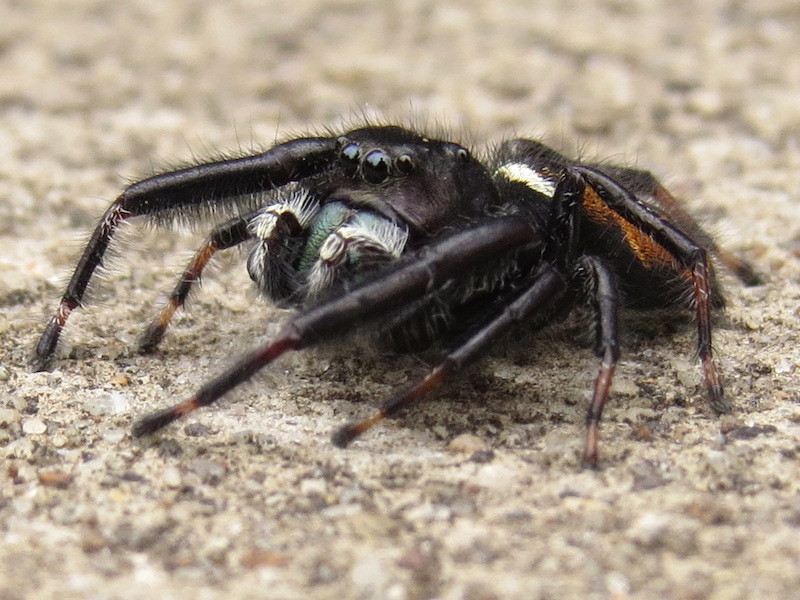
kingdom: Animalia
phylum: Arthropoda
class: Arachnida
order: Araneae
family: Salticidae
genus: Phidippus
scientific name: Phidippus clarus
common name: Brilliant jumping spider
